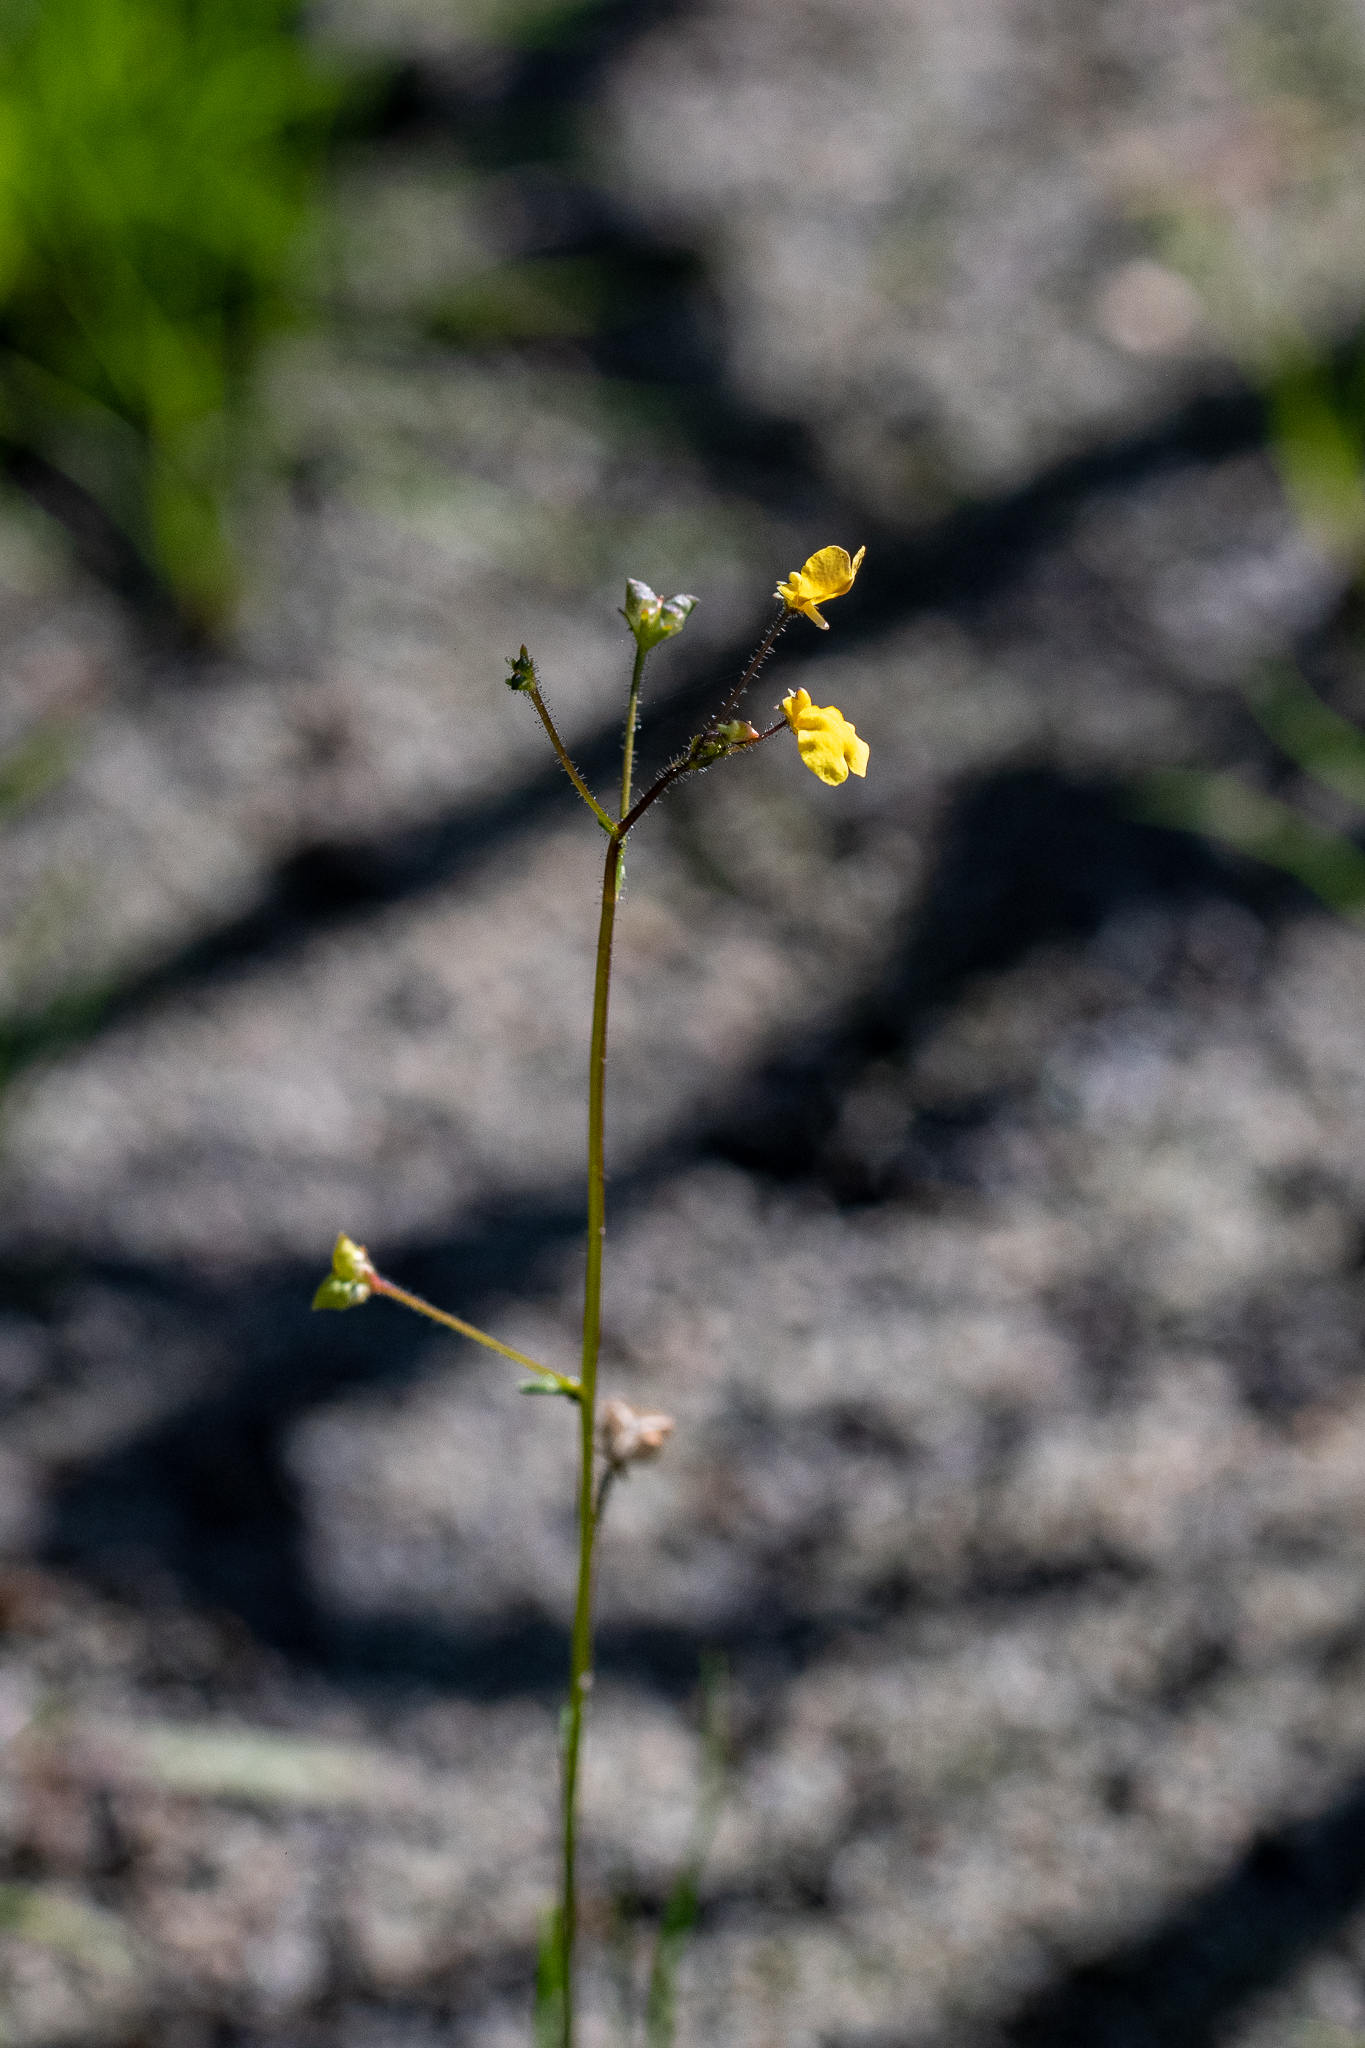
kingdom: Plantae
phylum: Tracheophyta
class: Magnoliopsida
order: Lamiales
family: Scrophulariaceae
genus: Nemesia
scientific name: Nemesia pinnata
